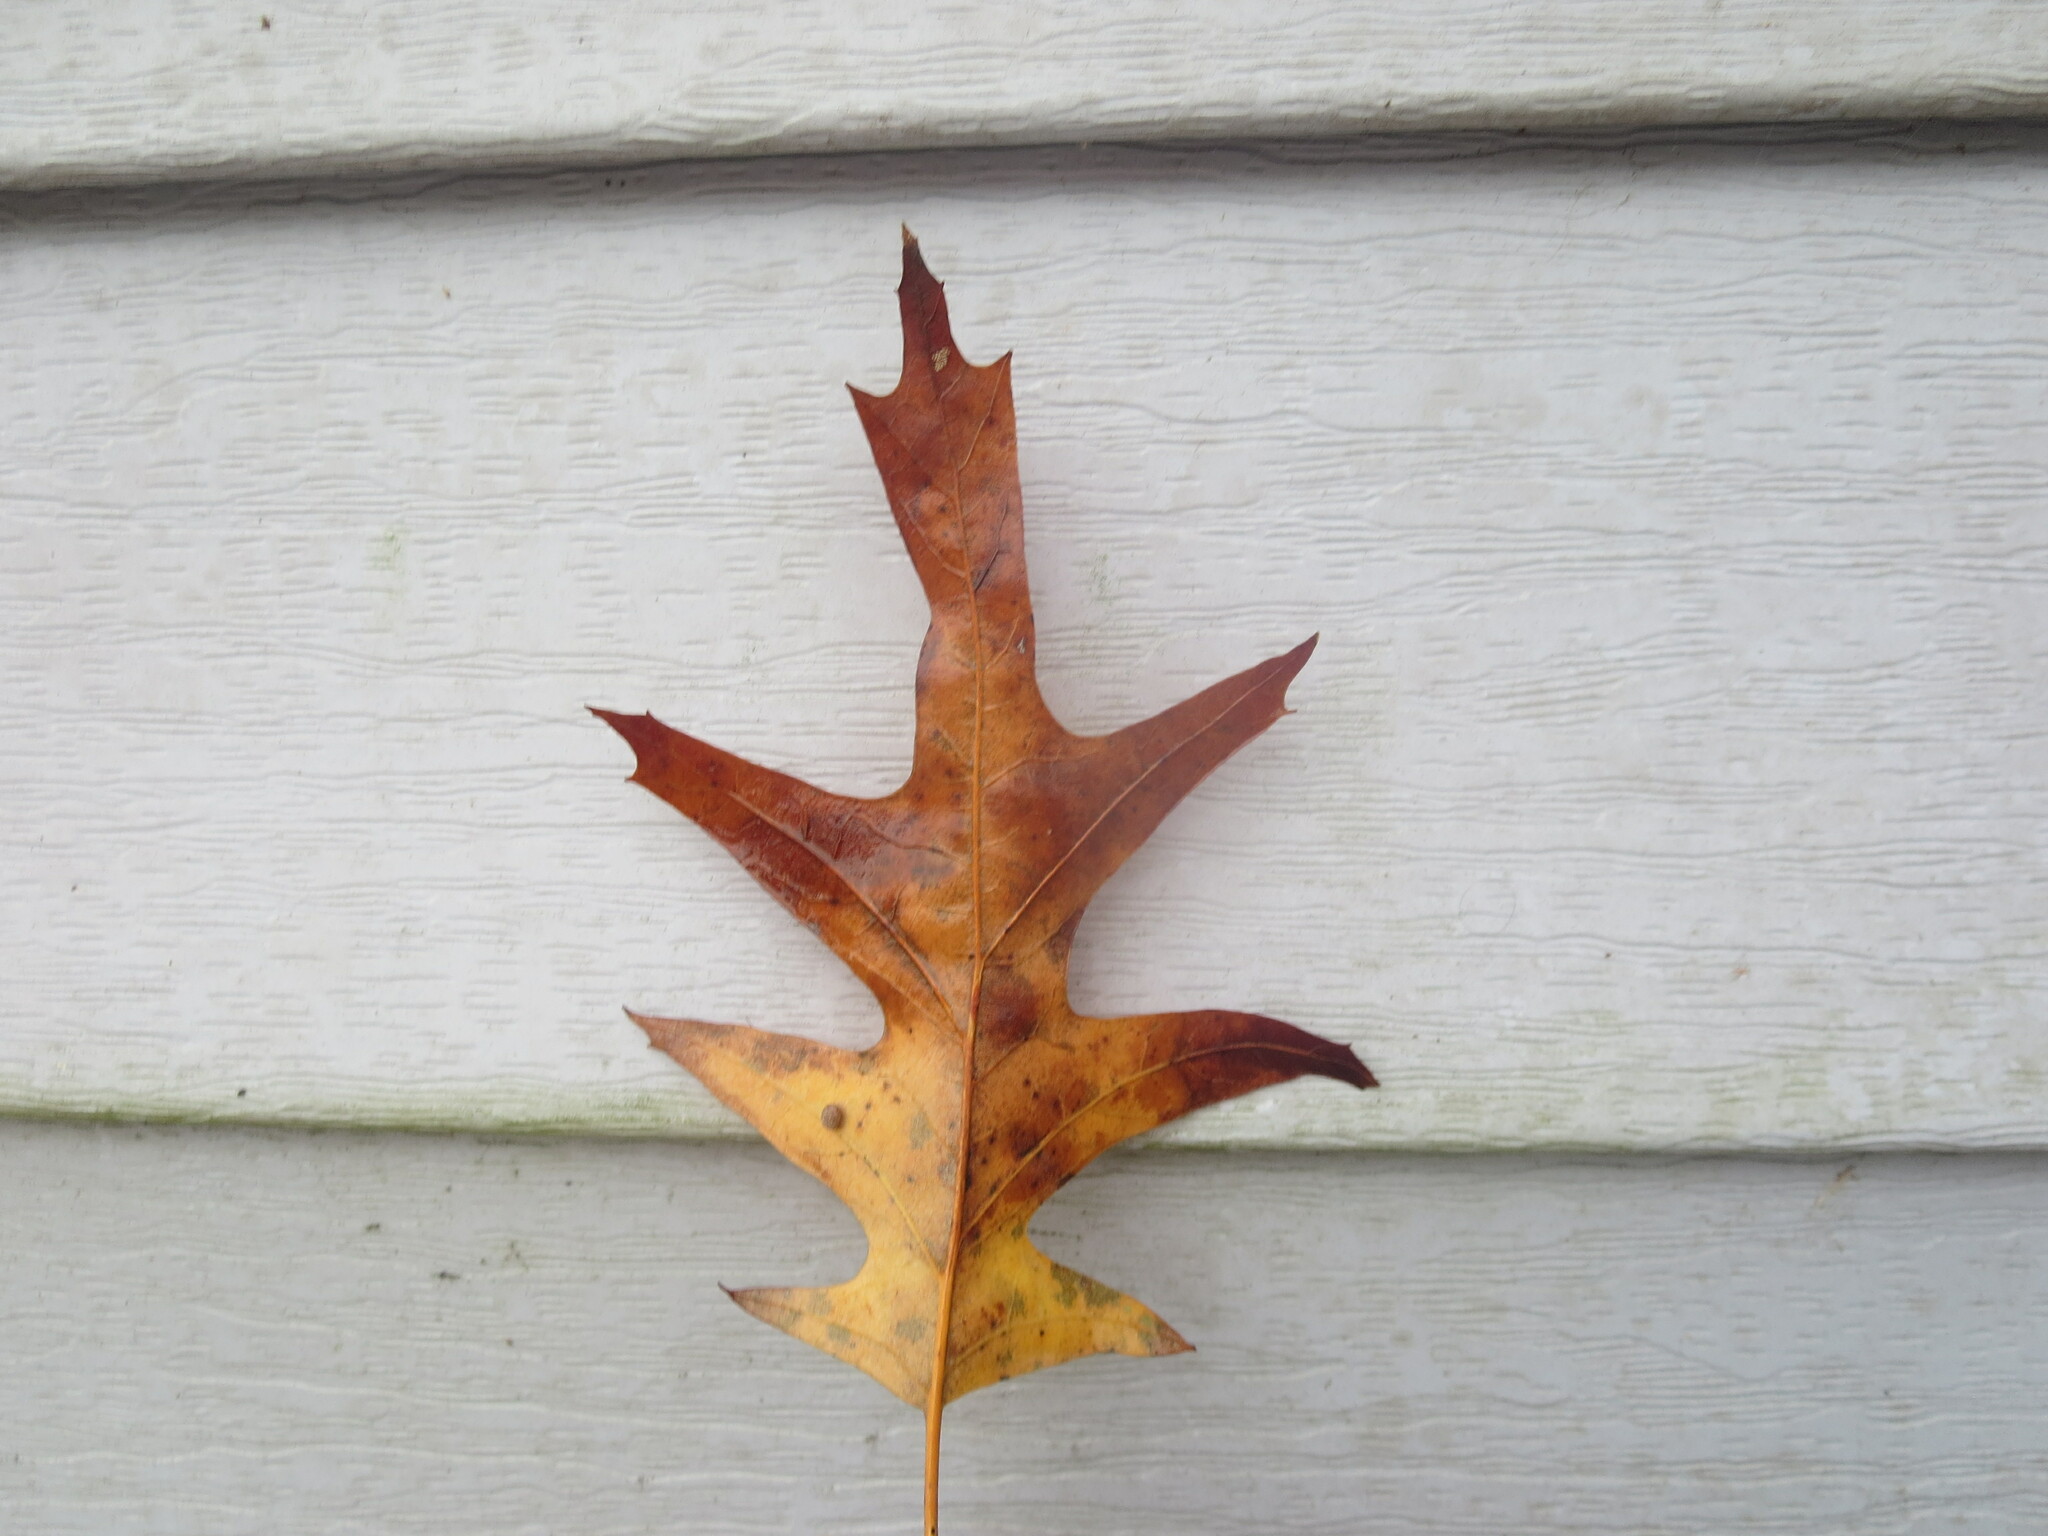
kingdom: Plantae
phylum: Tracheophyta
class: Magnoliopsida
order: Fagales
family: Fagaceae
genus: Quercus
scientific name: Quercus pagoda
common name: Cherrybark oak
